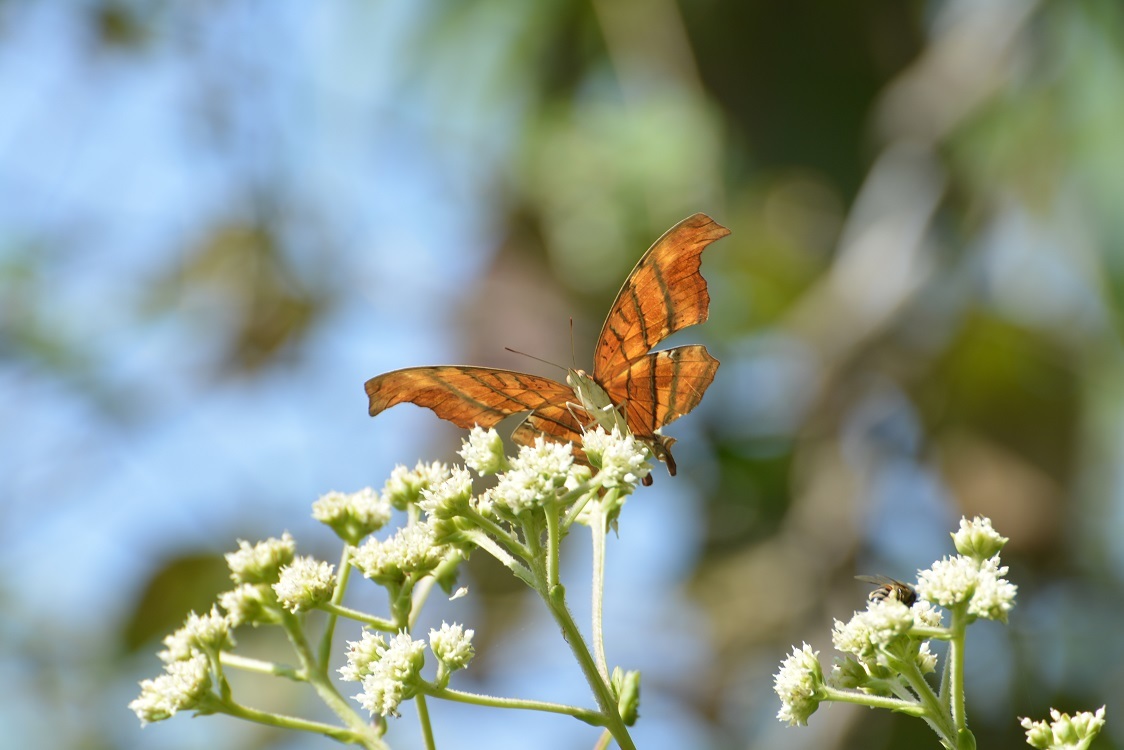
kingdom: Animalia
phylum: Arthropoda
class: Insecta
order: Lepidoptera
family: Nymphalidae
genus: Marpesia
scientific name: Marpesia petreus
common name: Red dagger wing
